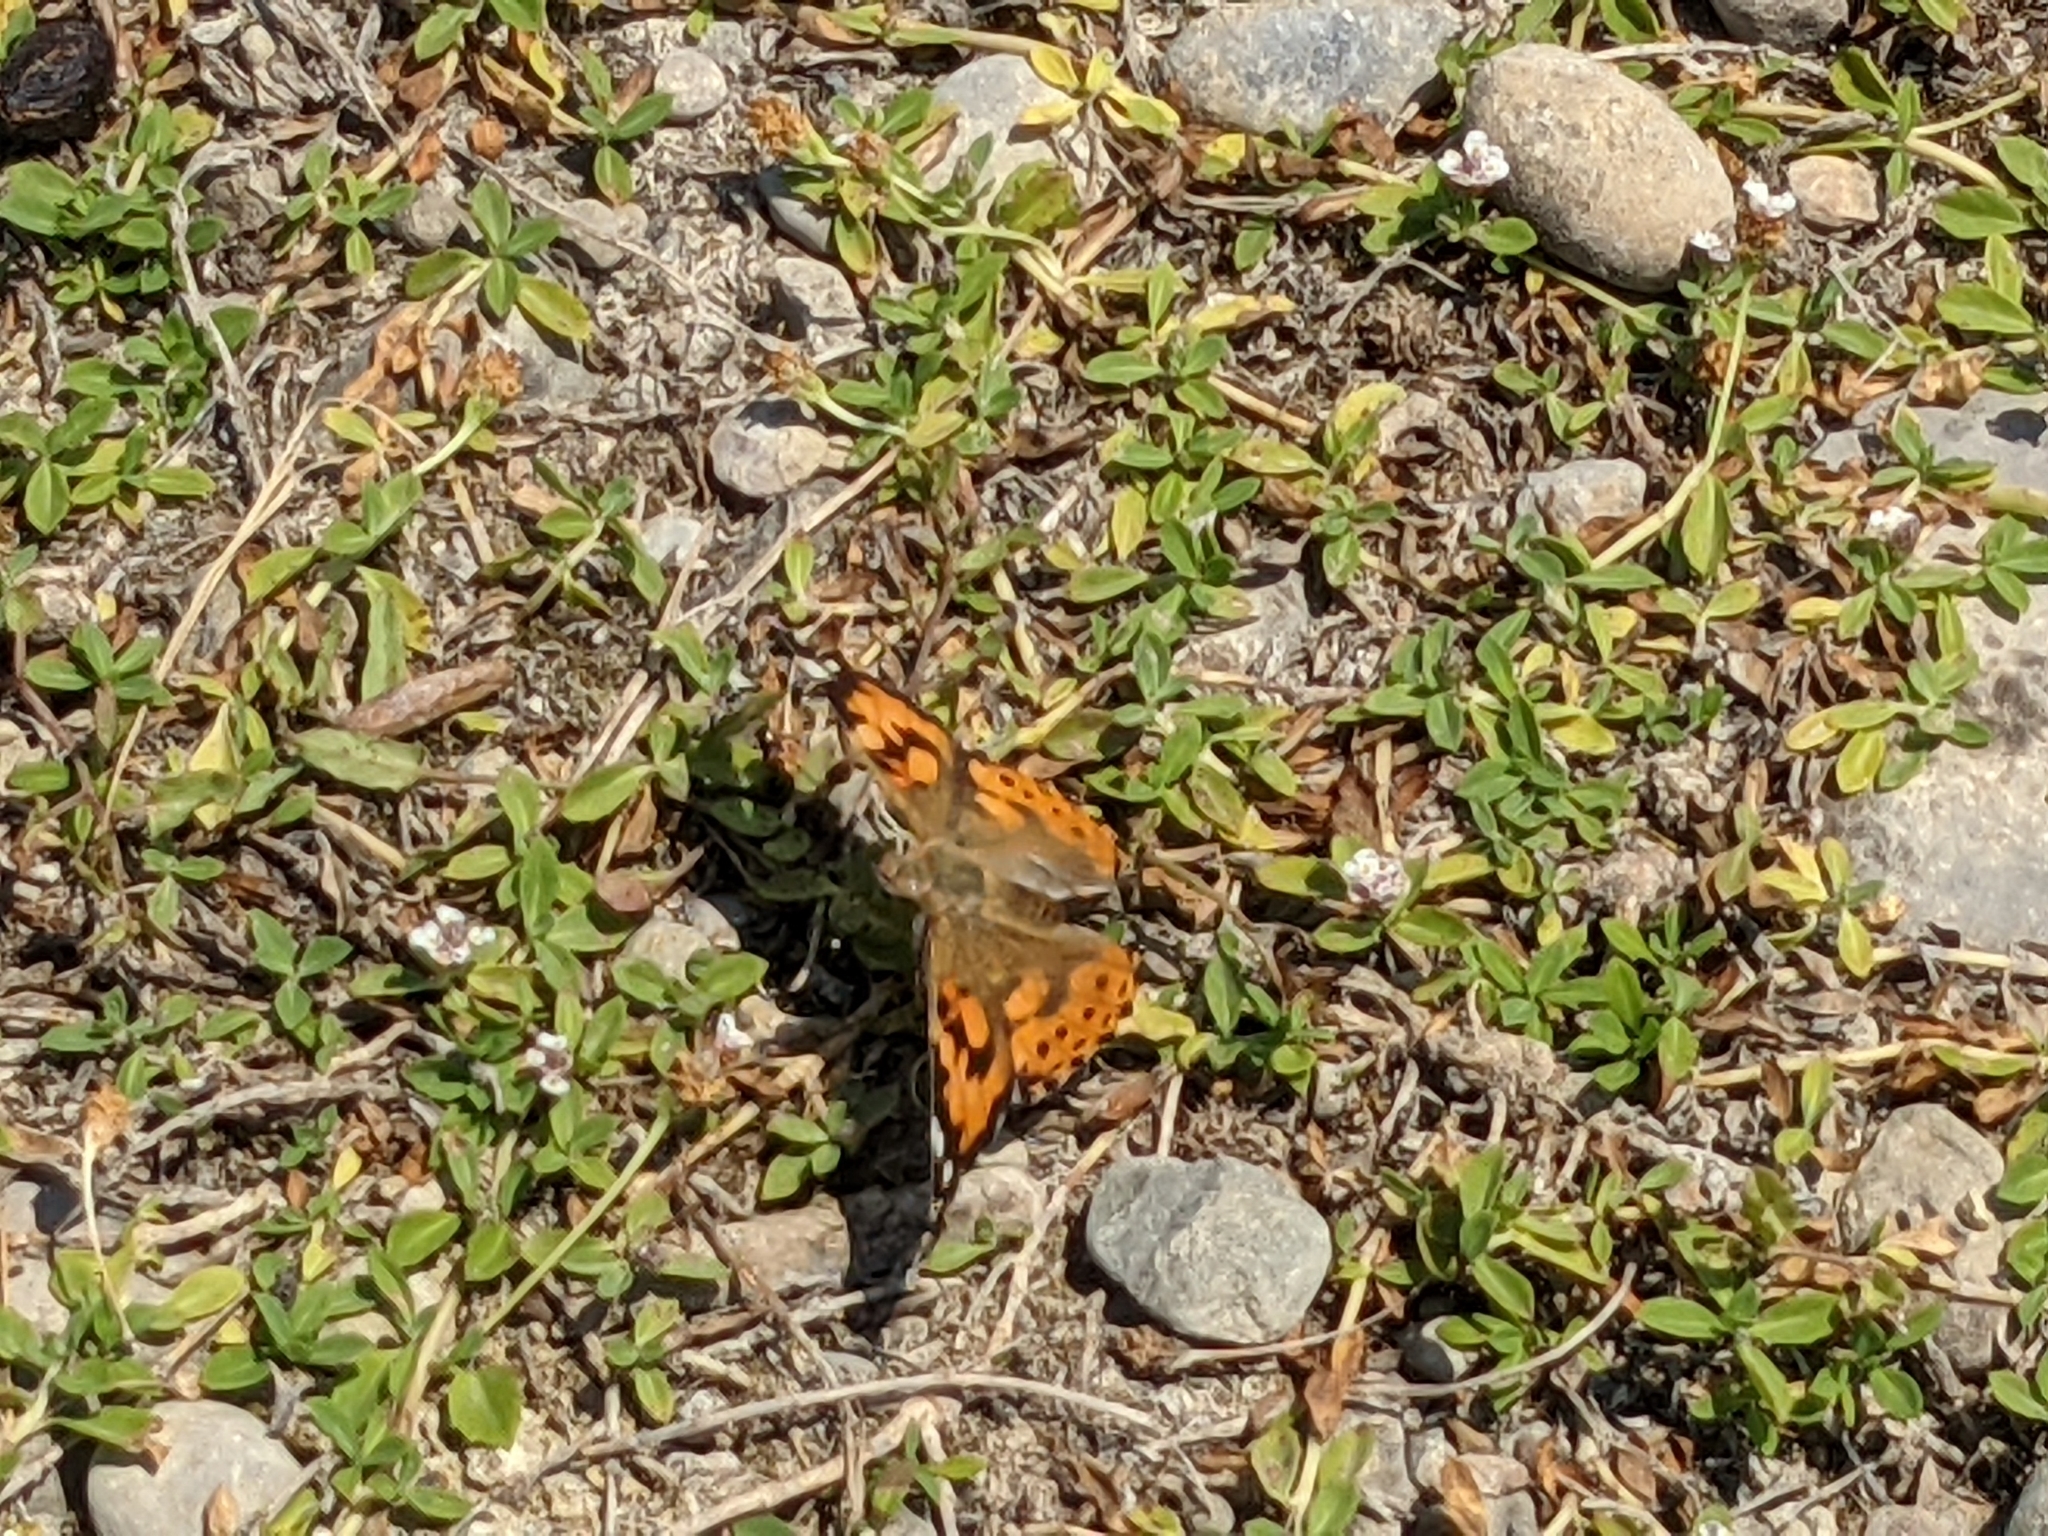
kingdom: Animalia
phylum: Arthropoda
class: Insecta
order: Lepidoptera
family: Nymphalidae
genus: Vanessa
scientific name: Vanessa cardui
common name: Painted lady
